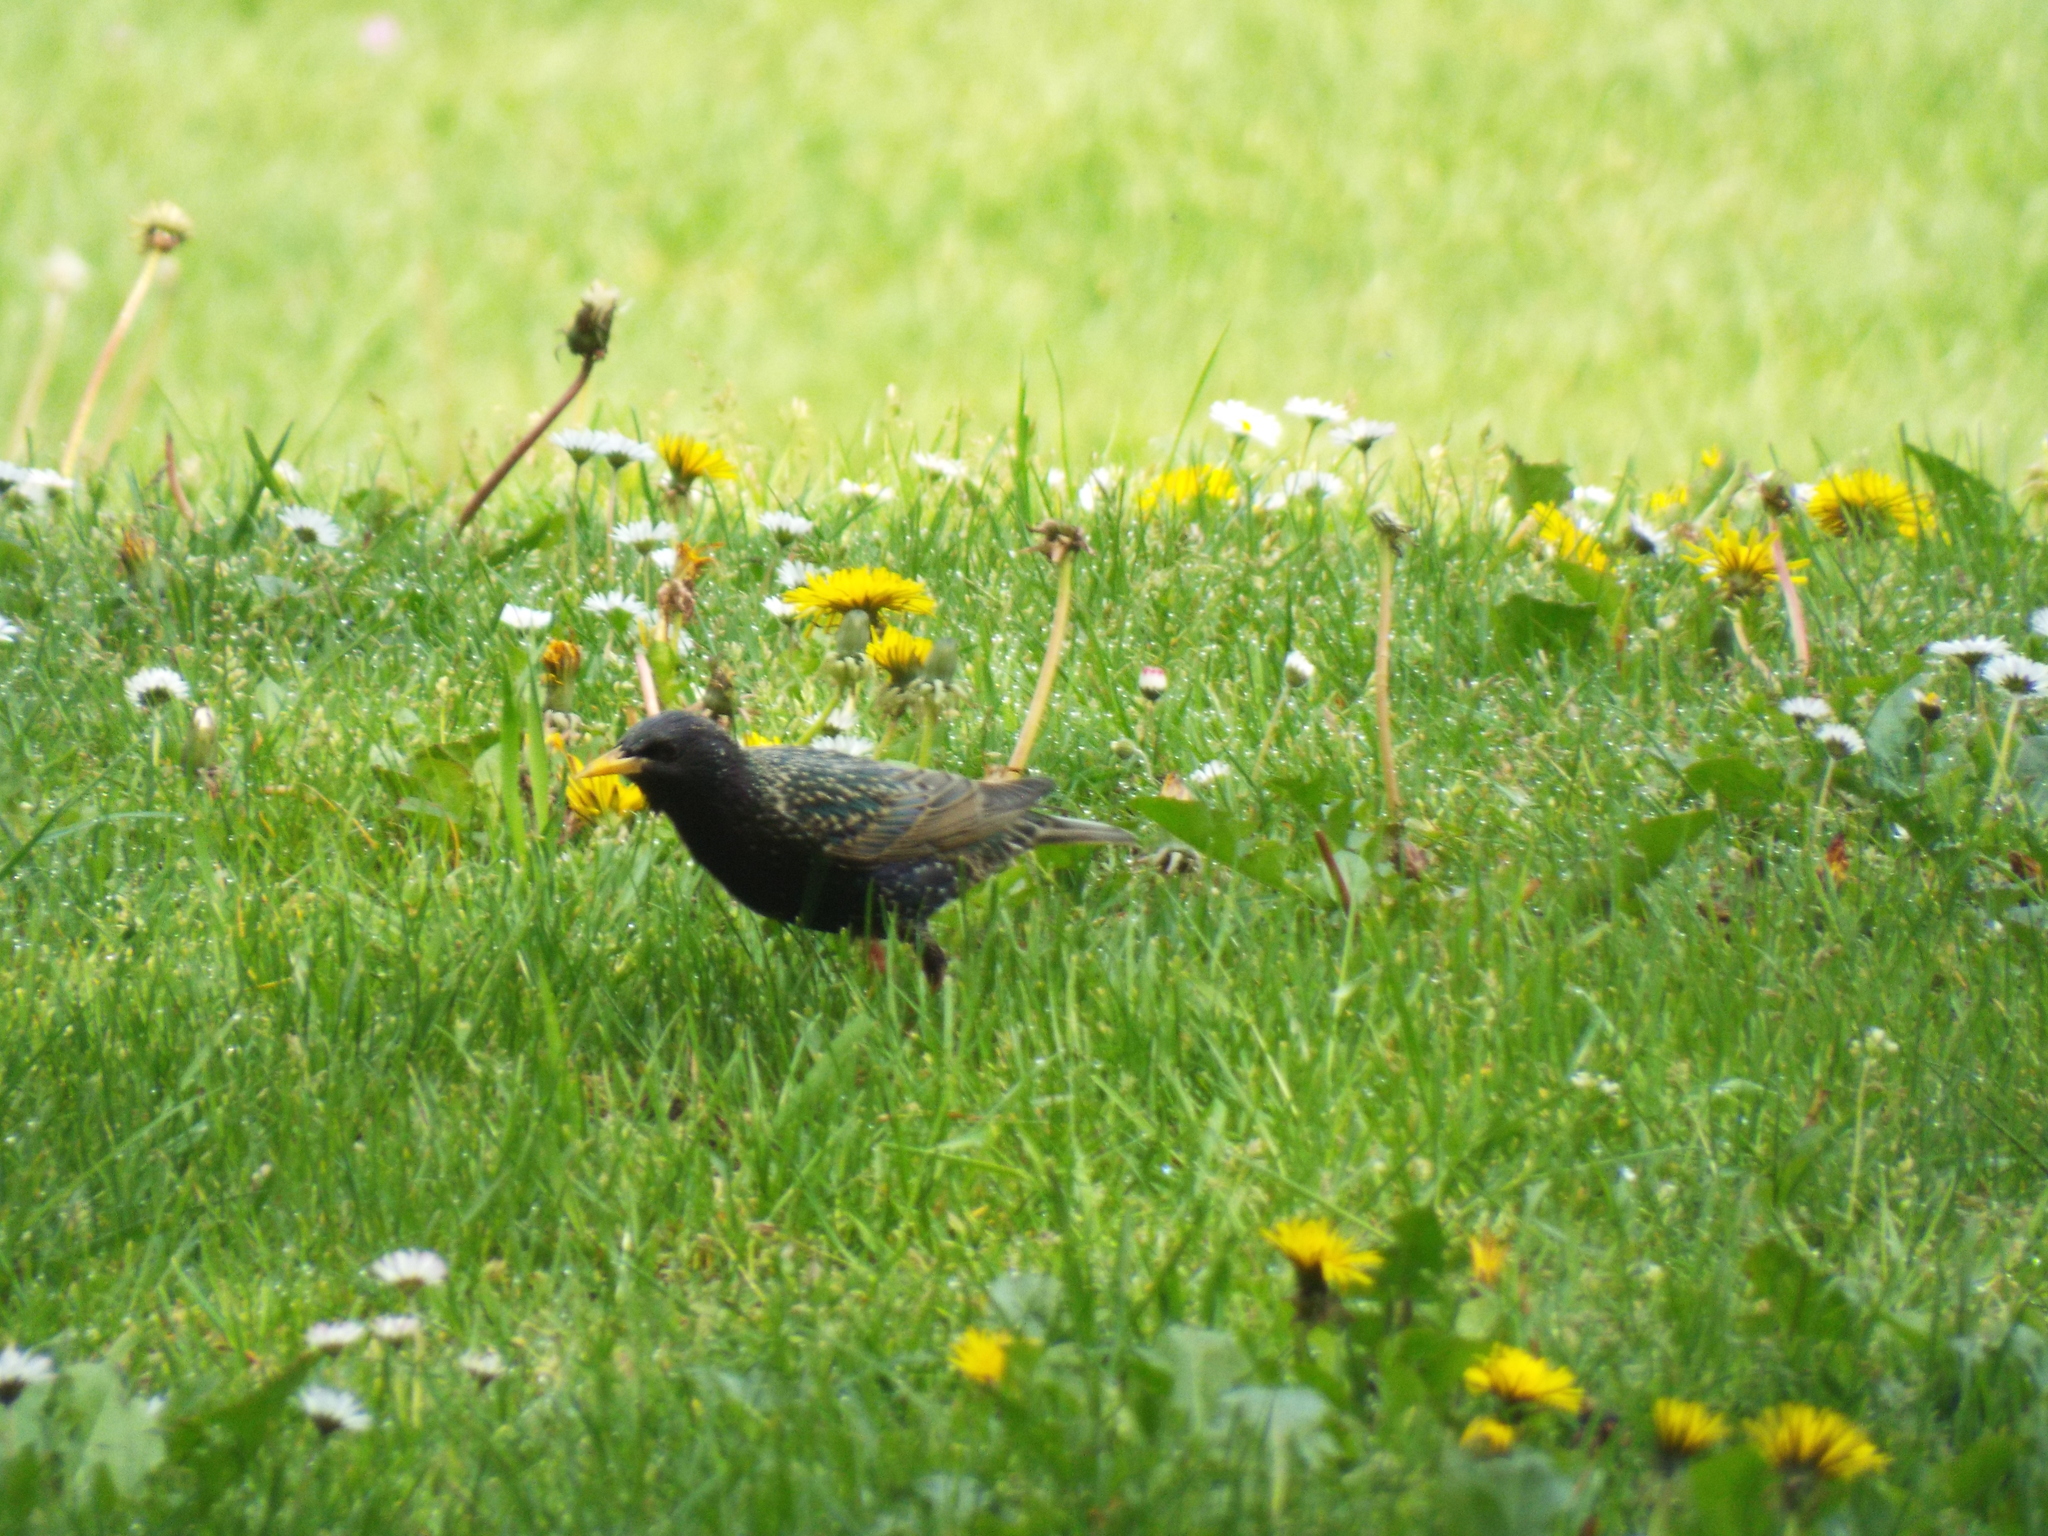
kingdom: Animalia
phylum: Chordata
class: Aves
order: Passeriformes
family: Sturnidae
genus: Sturnus
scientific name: Sturnus vulgaris
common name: Common starling
